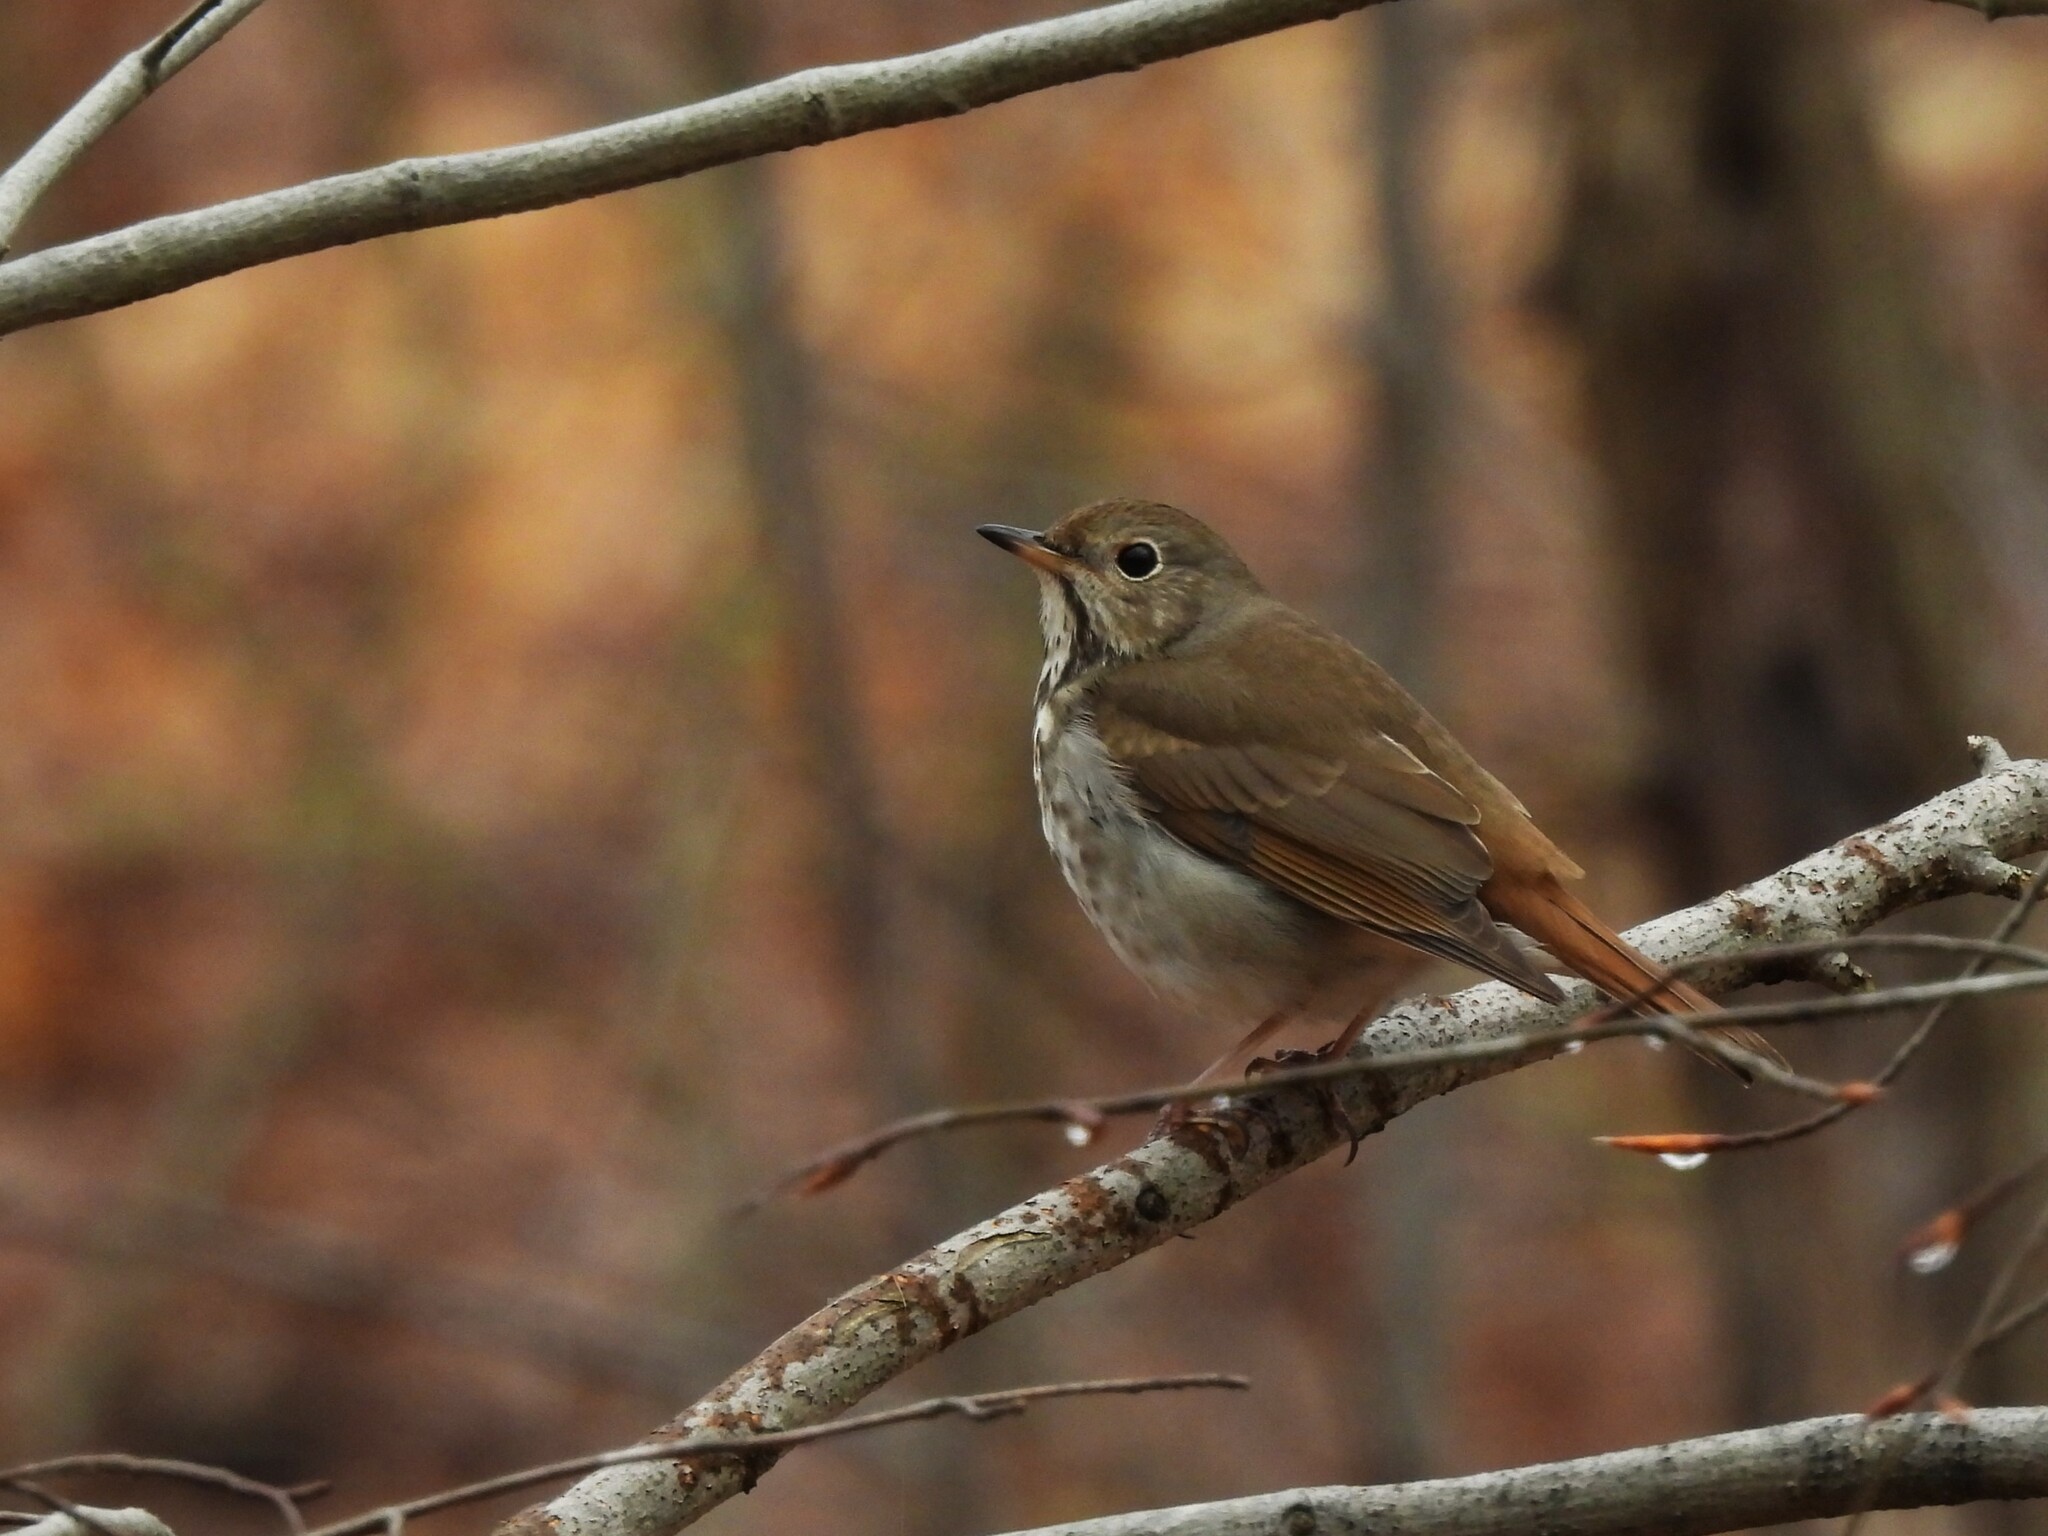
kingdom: Animalia
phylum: Chordata
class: Aves
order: Passeriformes
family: Turdidae
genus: Catharus
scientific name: Catharus guttatus
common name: Hermit thrush
